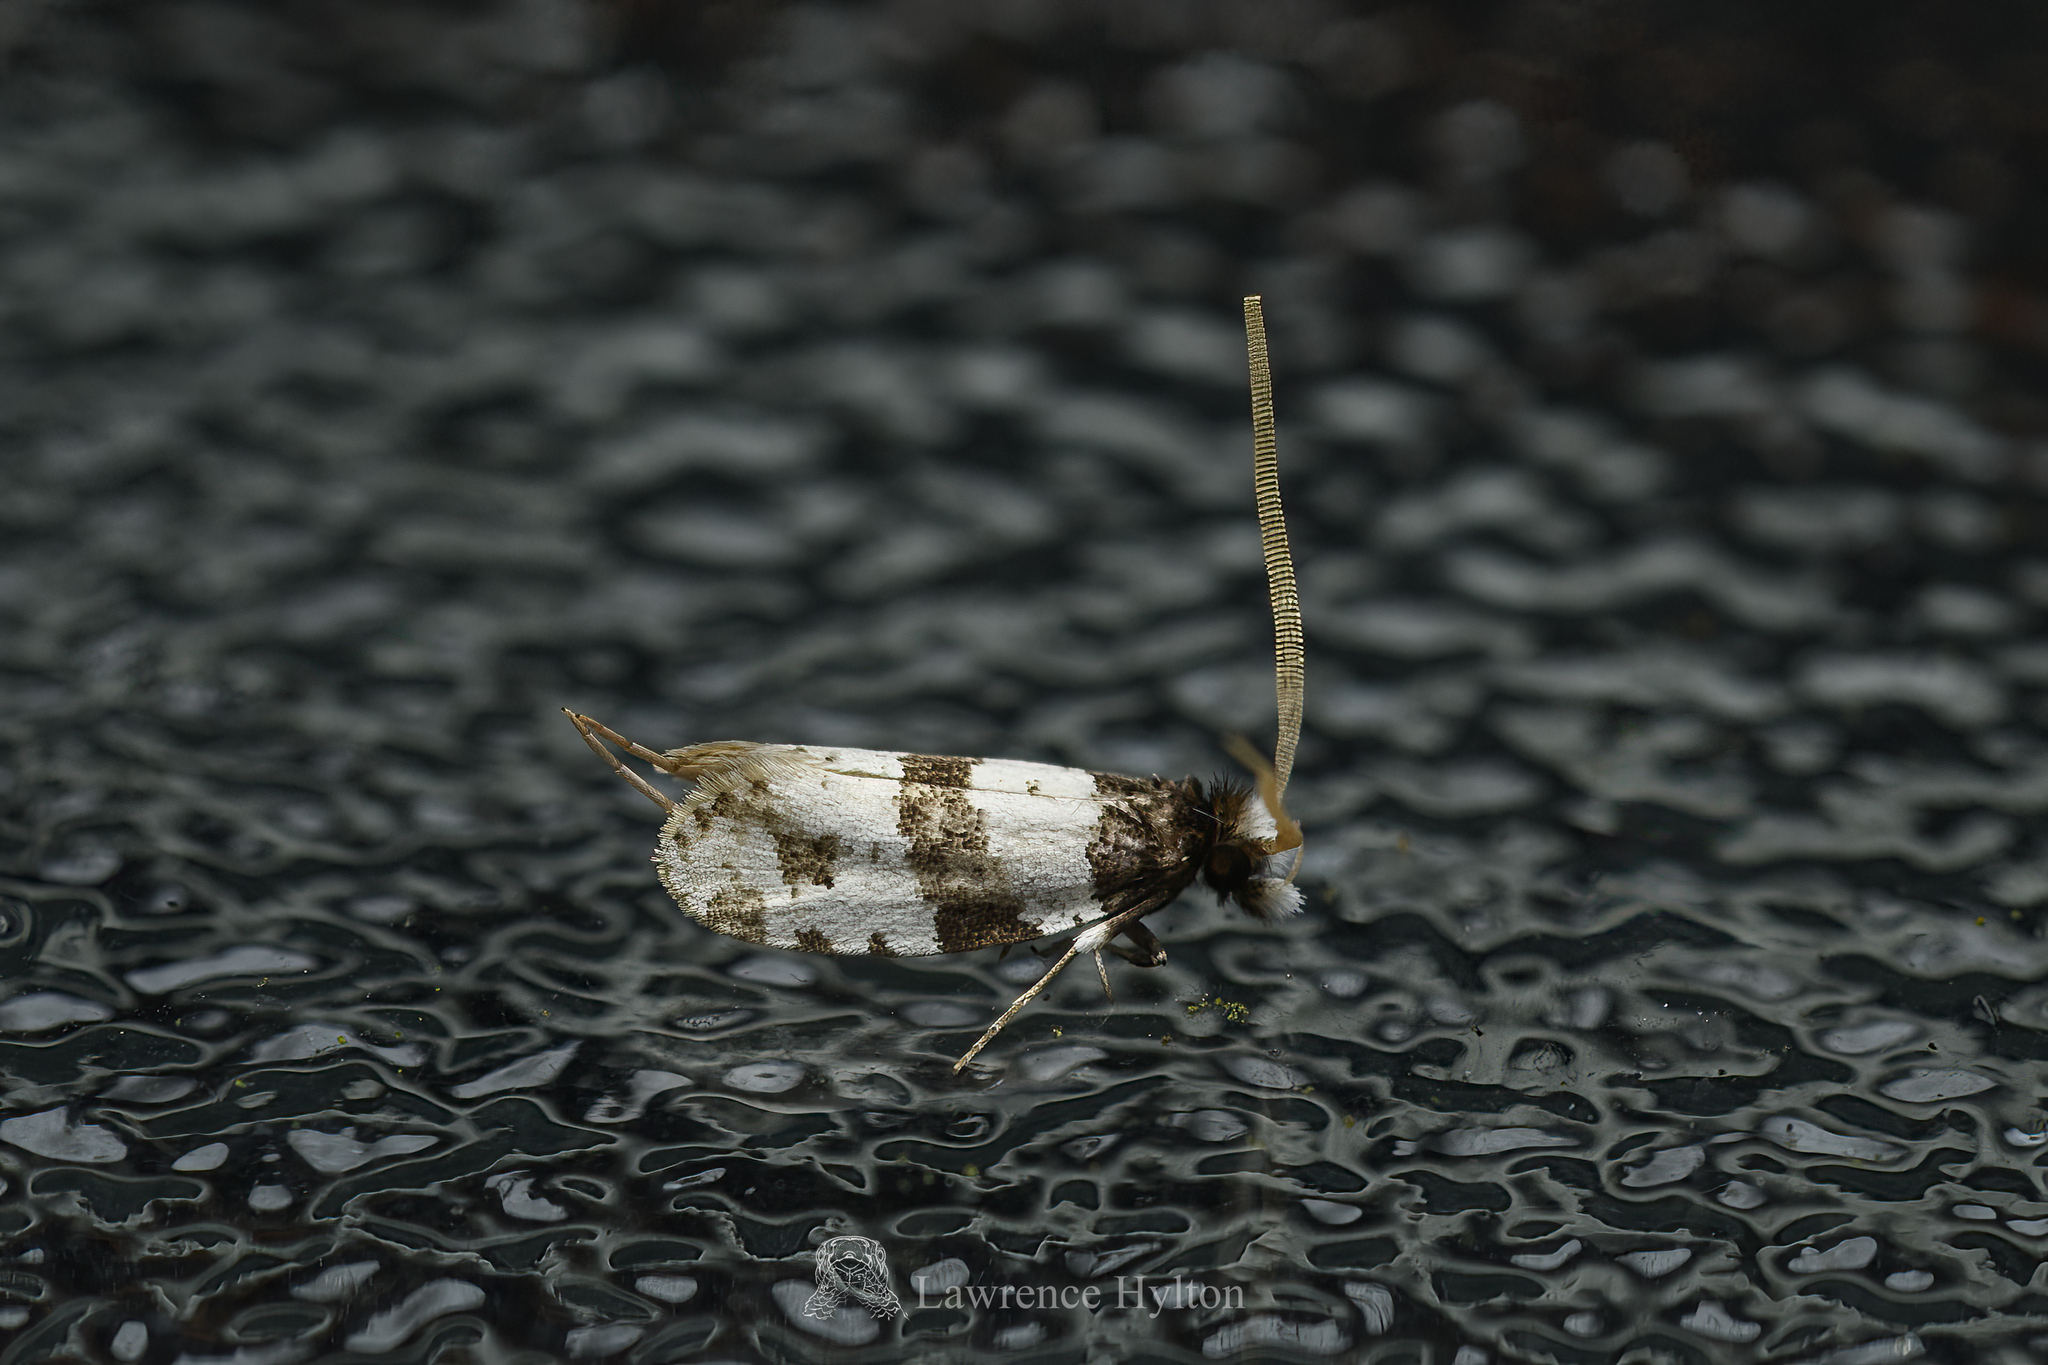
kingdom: Animalia
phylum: Arthropoda
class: Insecta
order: Lepidoptera
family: Tineidae
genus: Thisizima
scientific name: Thisizima fasciaria
